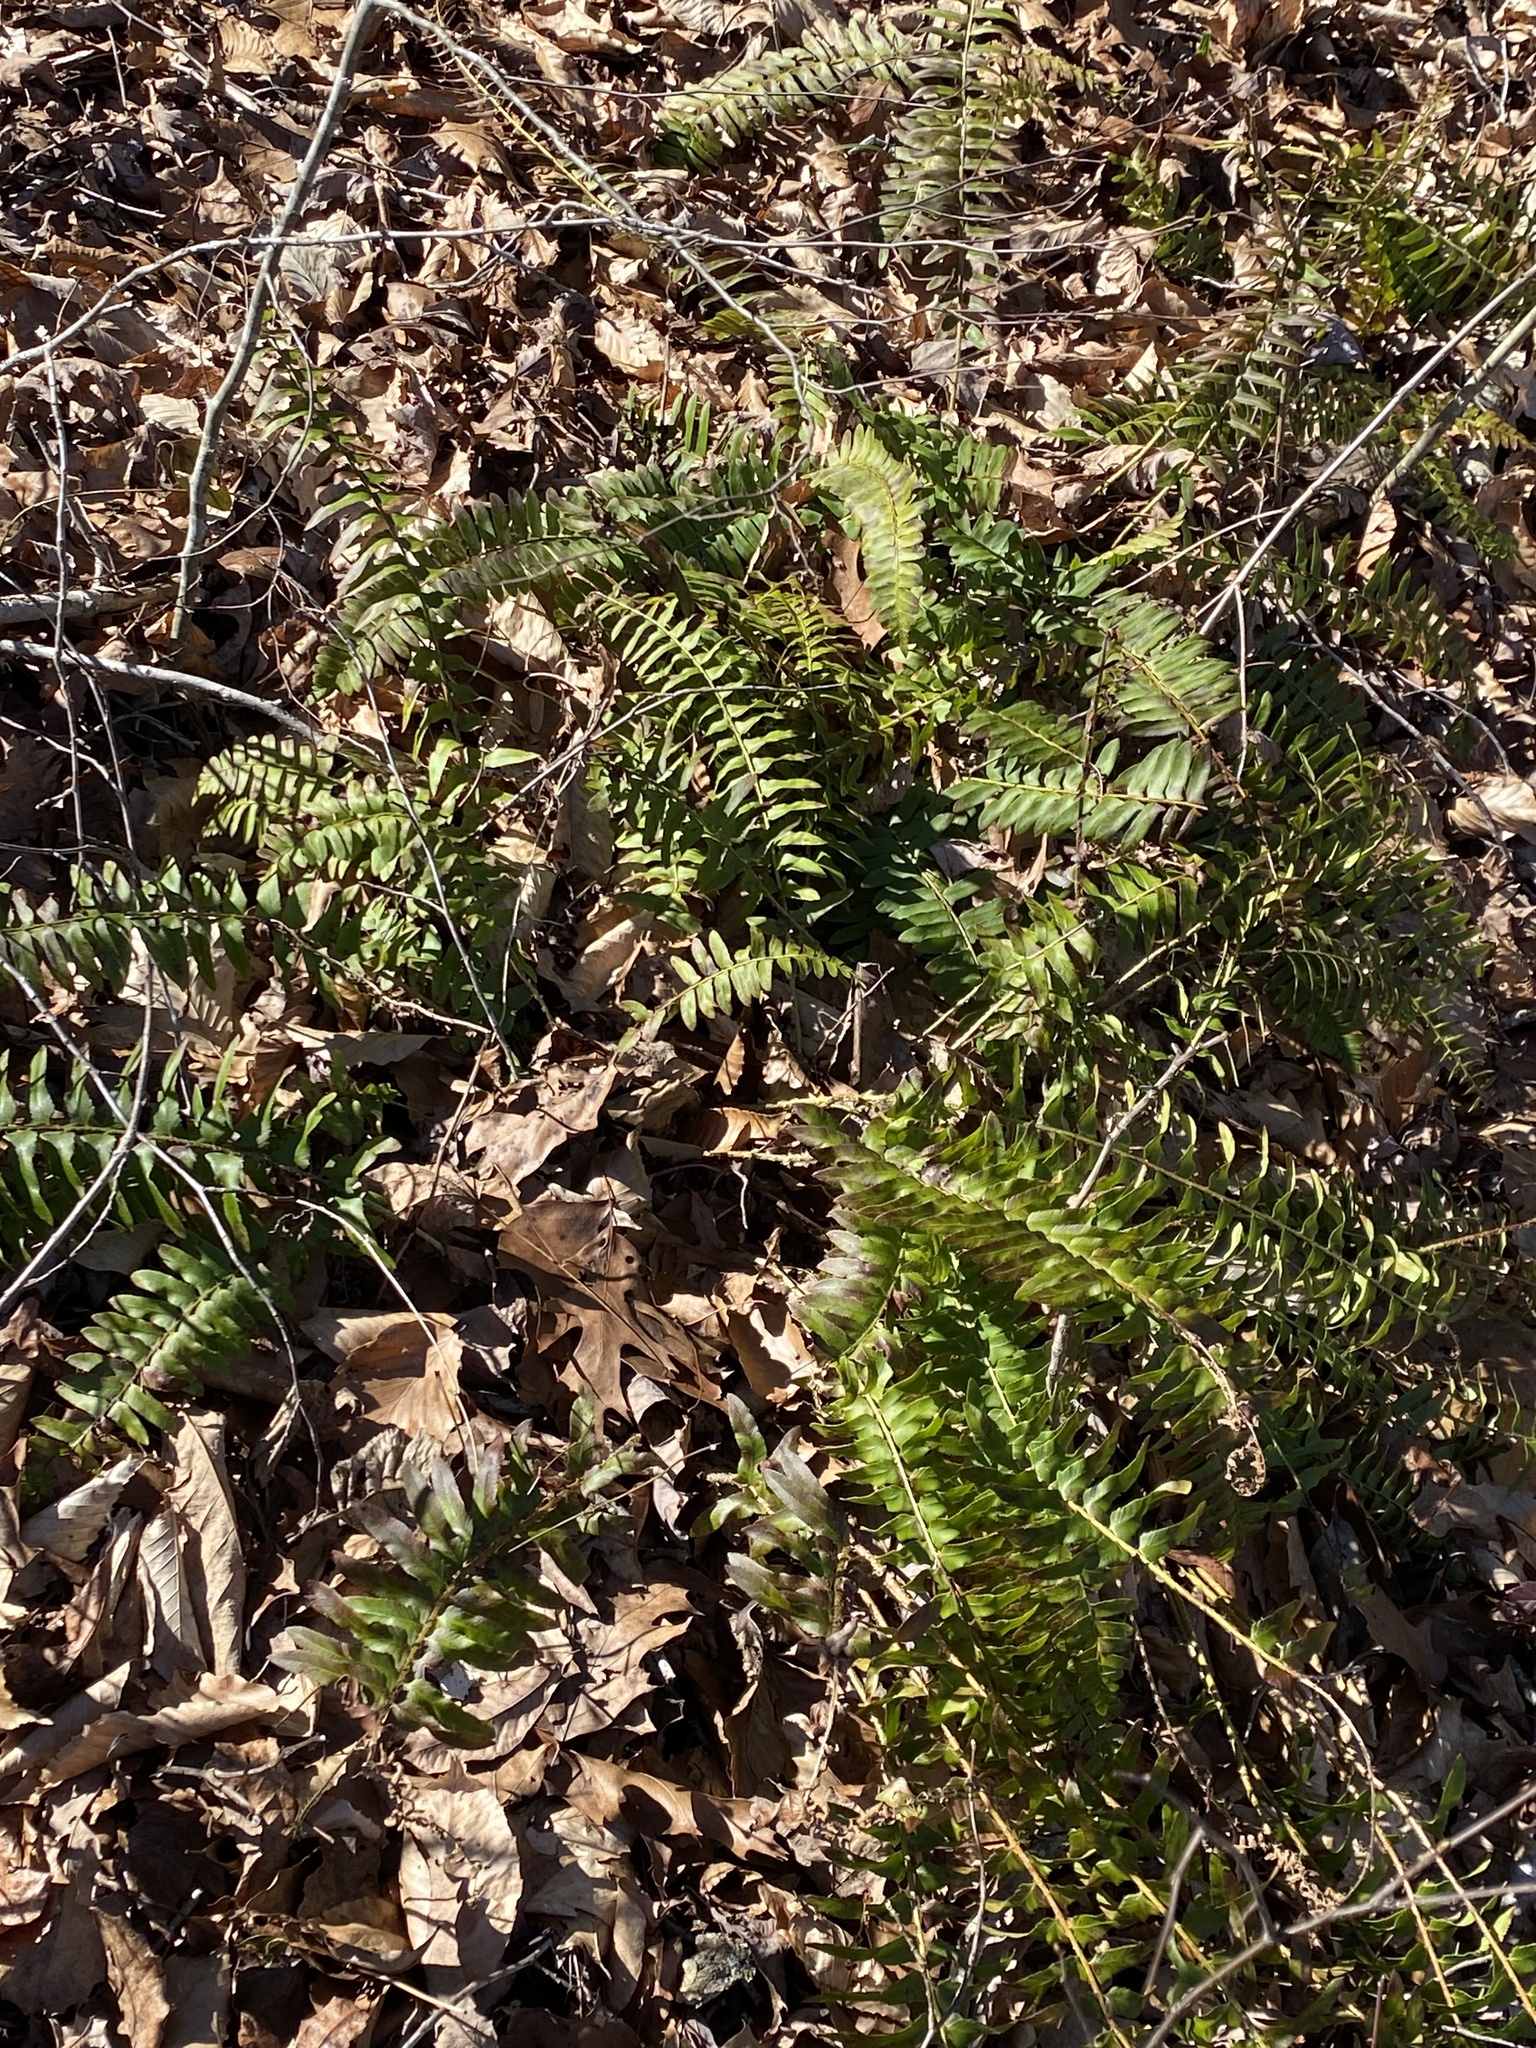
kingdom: Plantae
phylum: Tracheophyta
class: Polypodiopsida
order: Polypodiales
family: Dryopteridaceae
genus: Polystichum
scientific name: Polystichum acrostichoides
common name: Christmas fern
